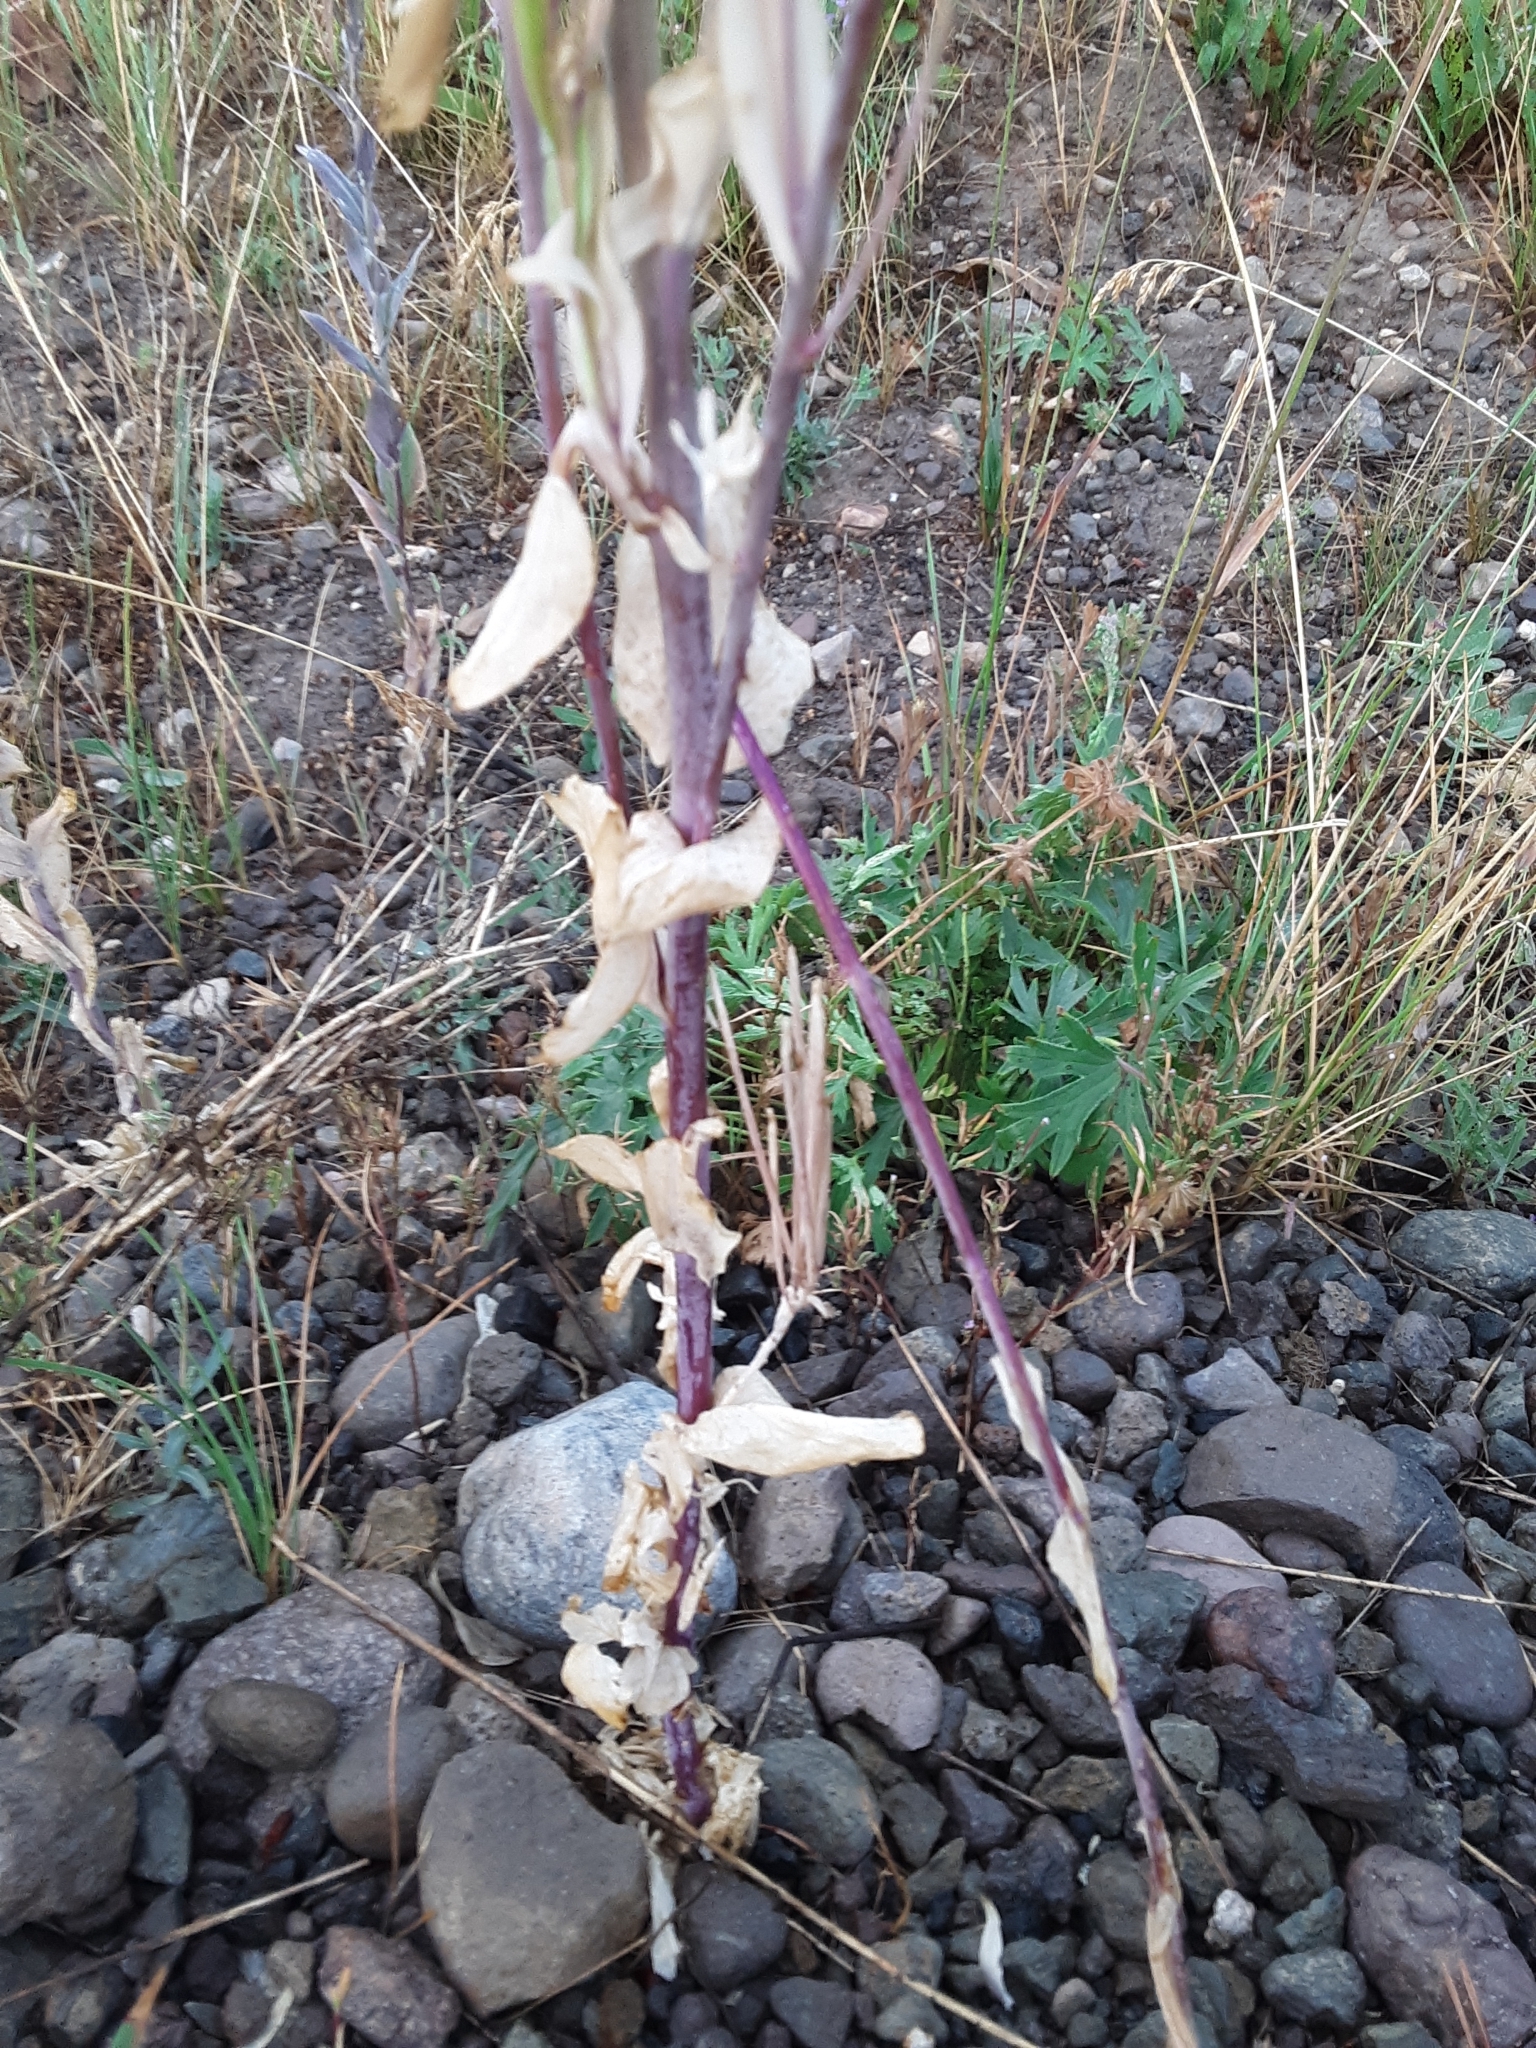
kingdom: Plantae
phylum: Tracheophyta
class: Magnoliopsida
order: Brassicales
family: Brassicaceae
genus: Turritis
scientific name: Turritis glabra
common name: Tower rockcress
